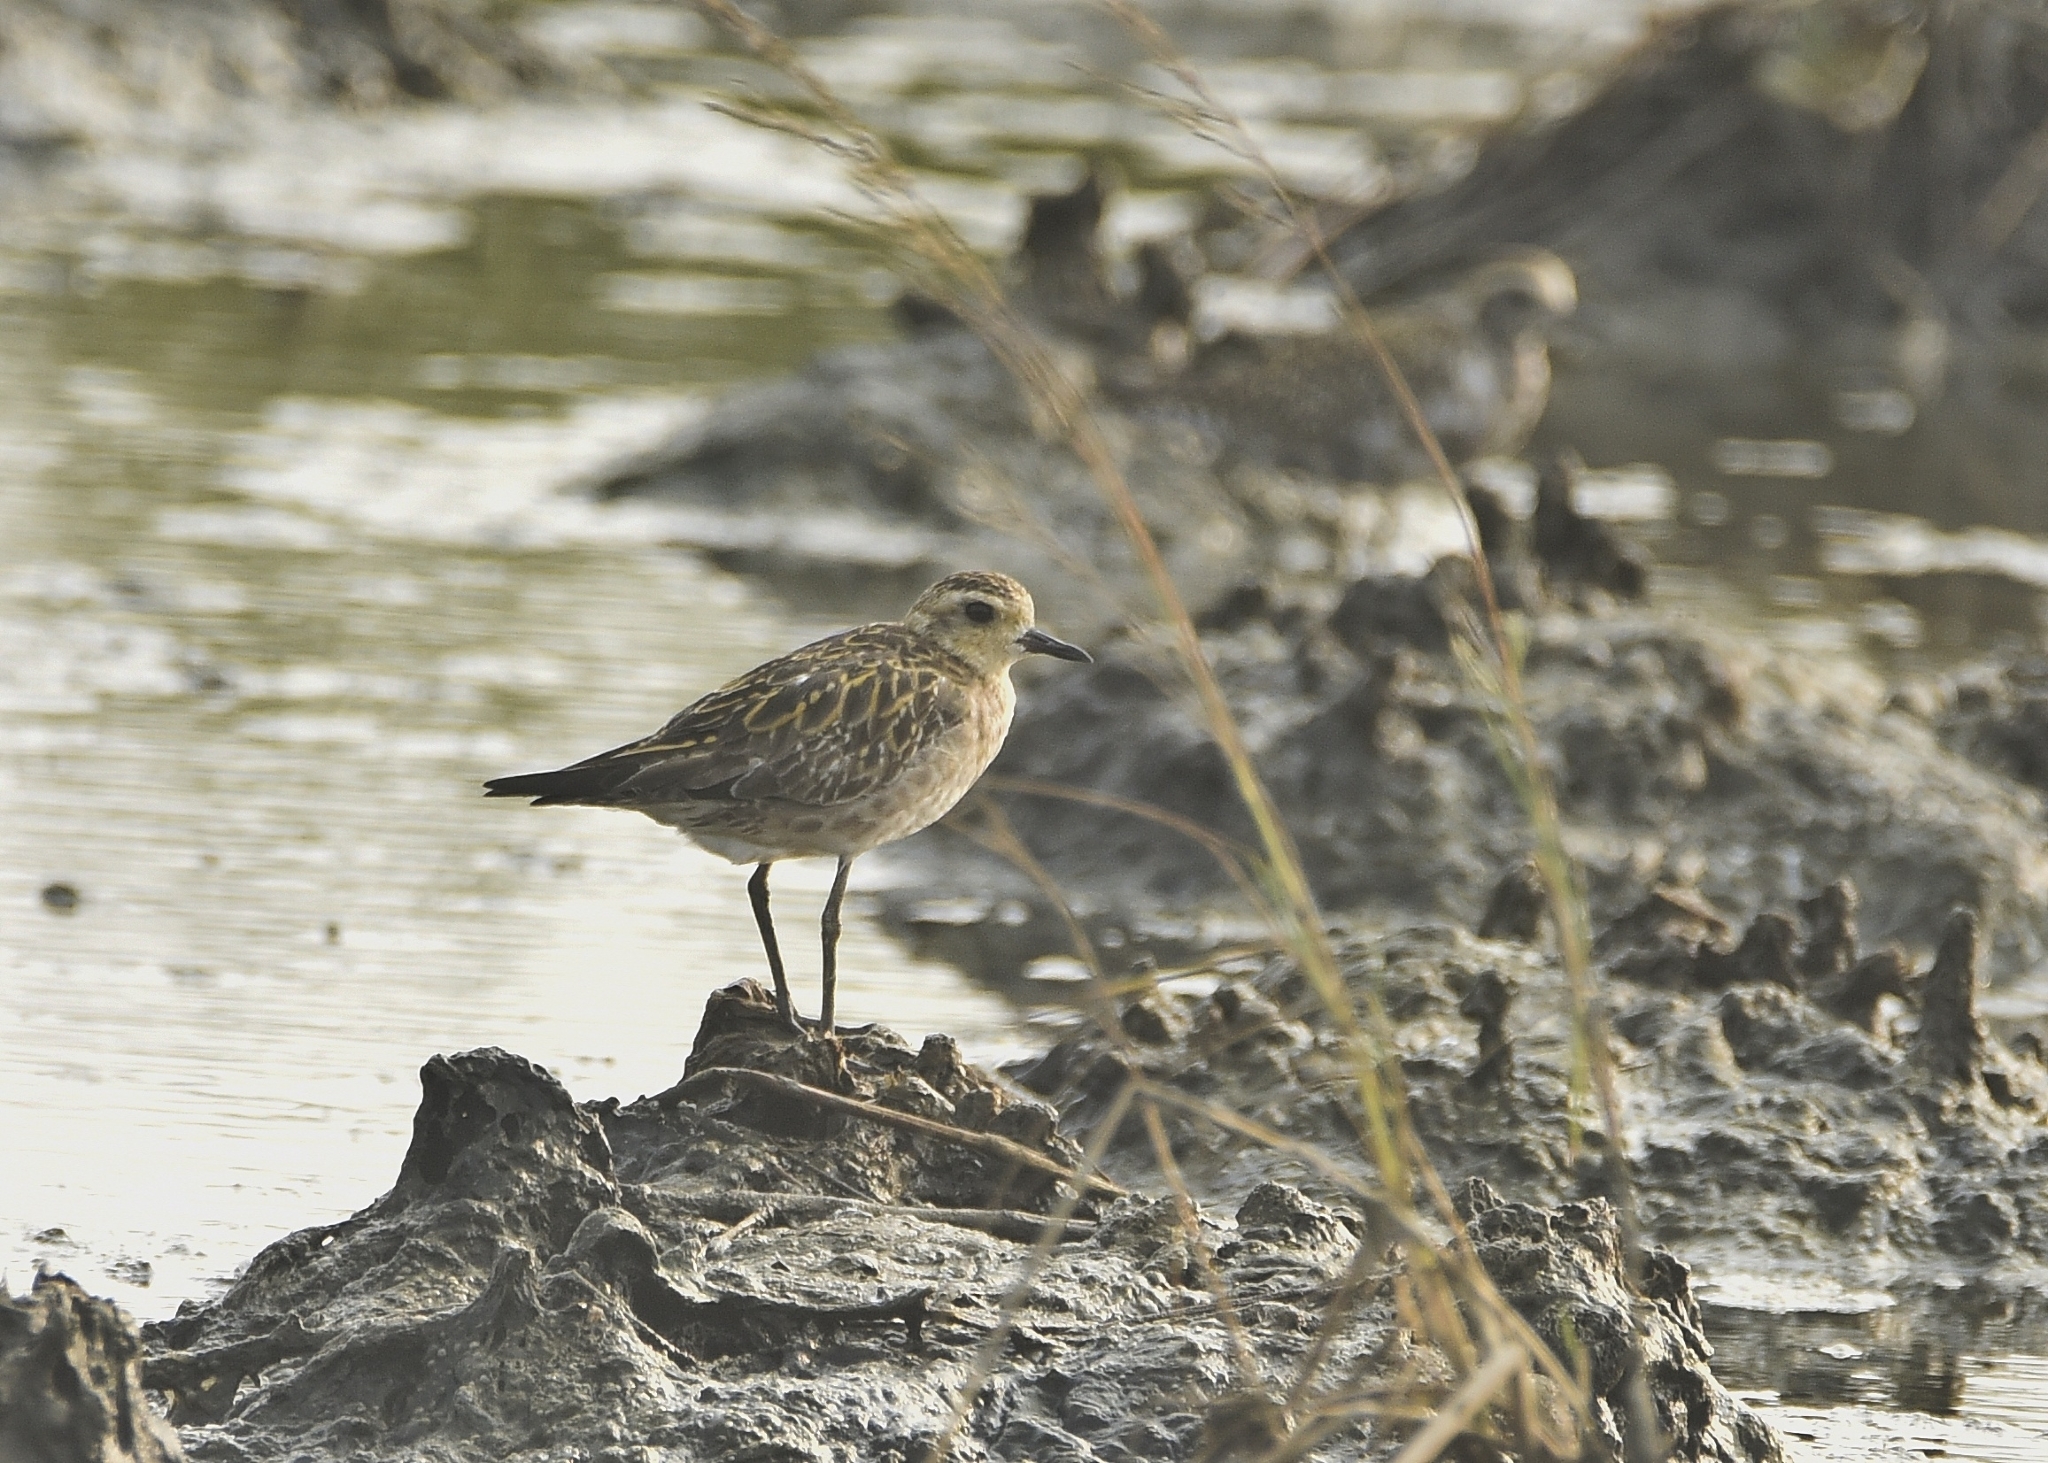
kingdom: Animalia
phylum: Chordata
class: Aves
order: Charadriiformes
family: Charadriidae
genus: Pluvialis
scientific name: Pluvialis fulva
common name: Pacific golden plover
